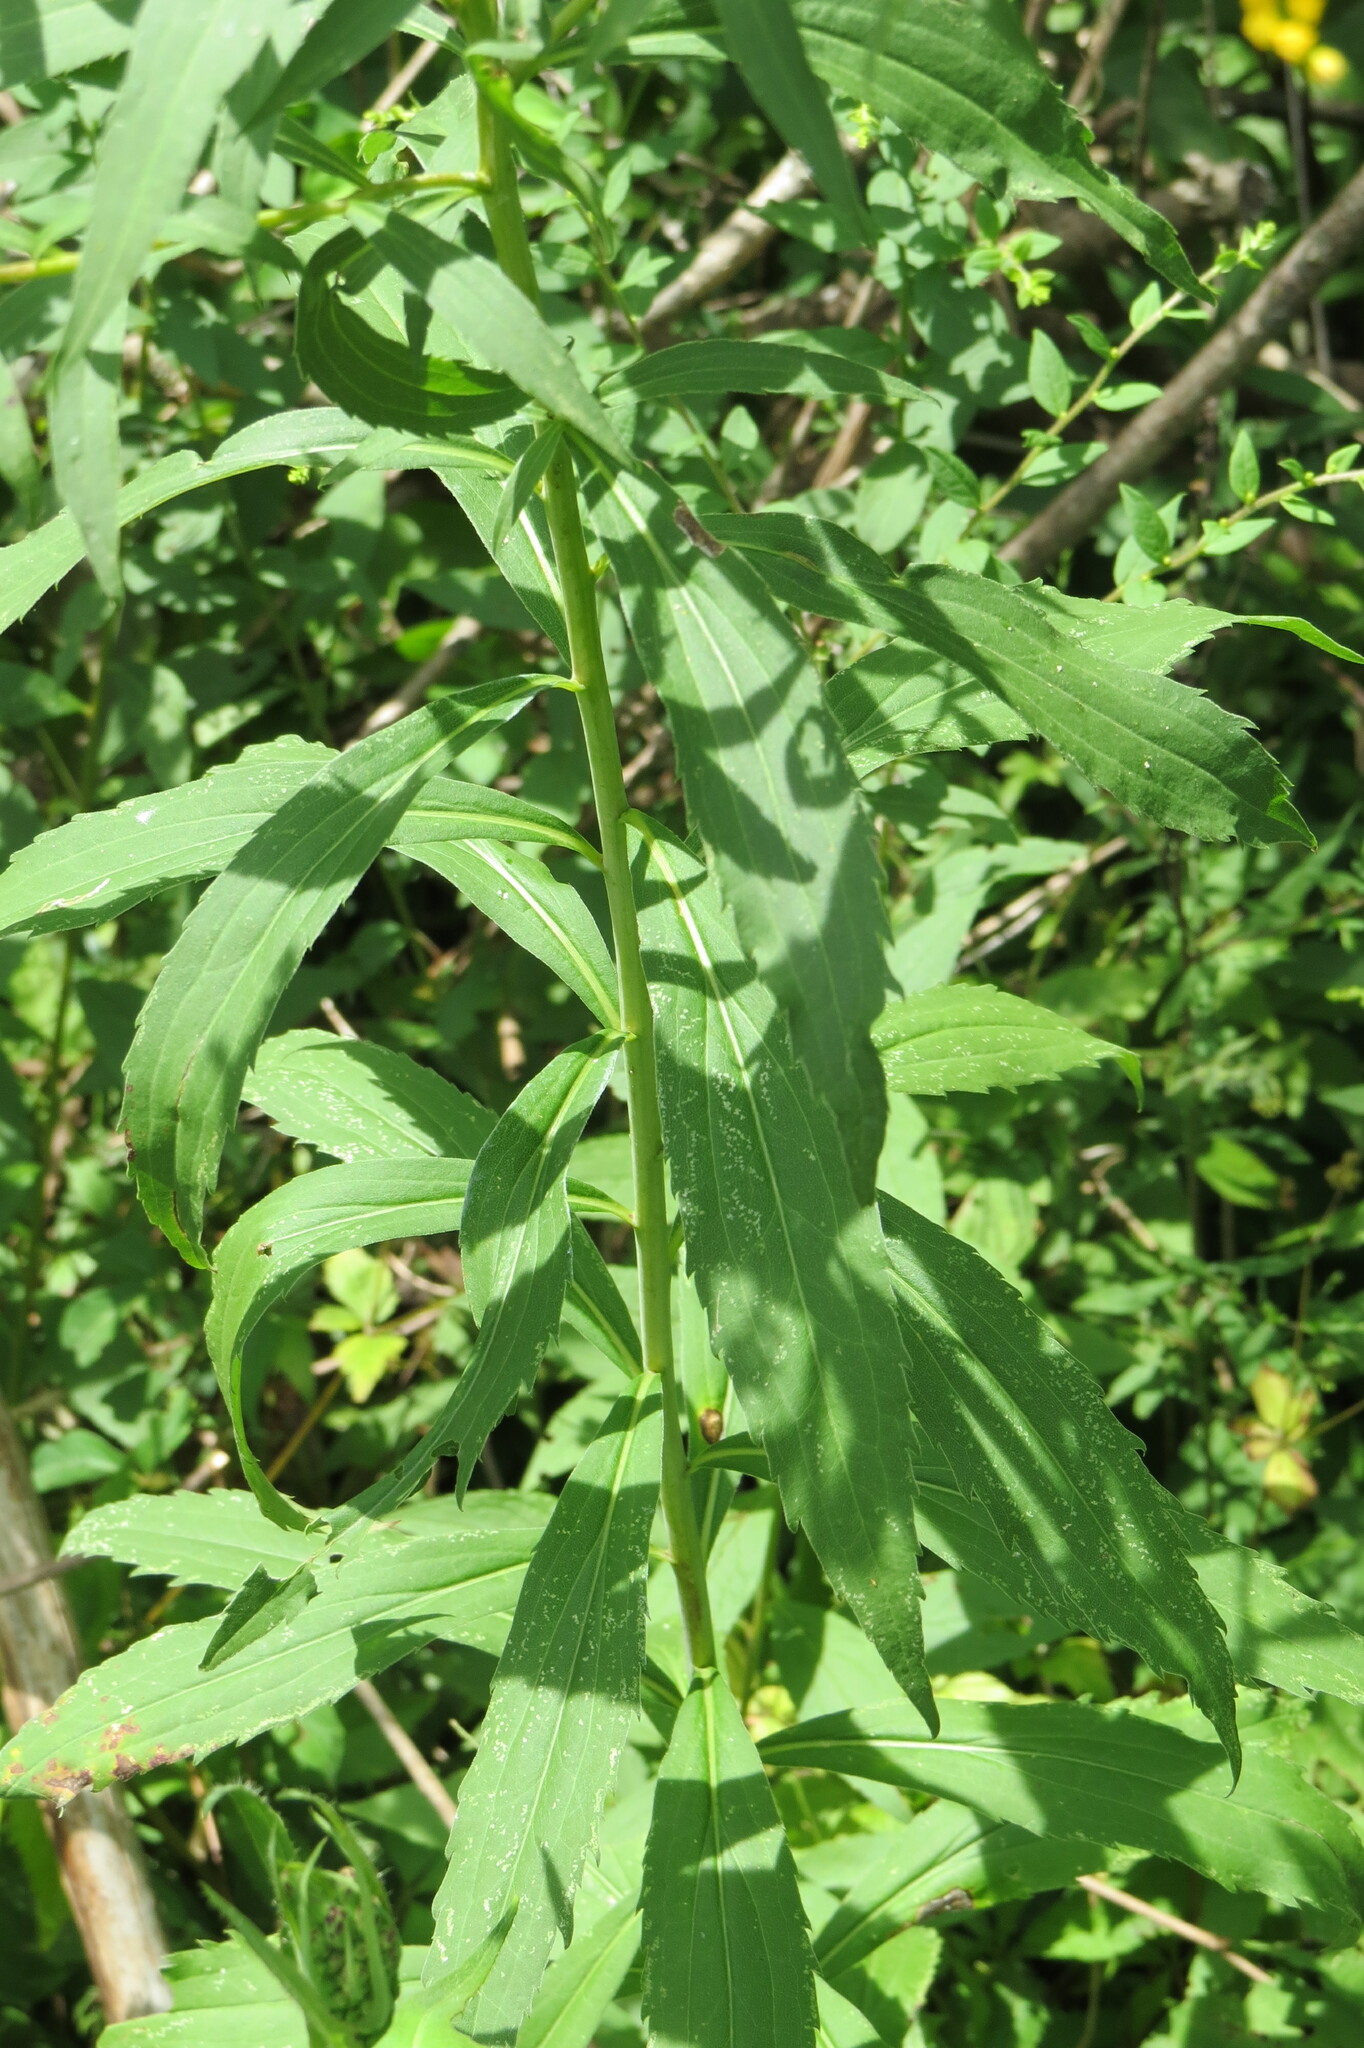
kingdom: Plantae
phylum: Tracheophyta
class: Magnoliopsida
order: Asterales
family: Asteraceae
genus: Solidago
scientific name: Solidago gigantea
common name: Giant goldenrod
